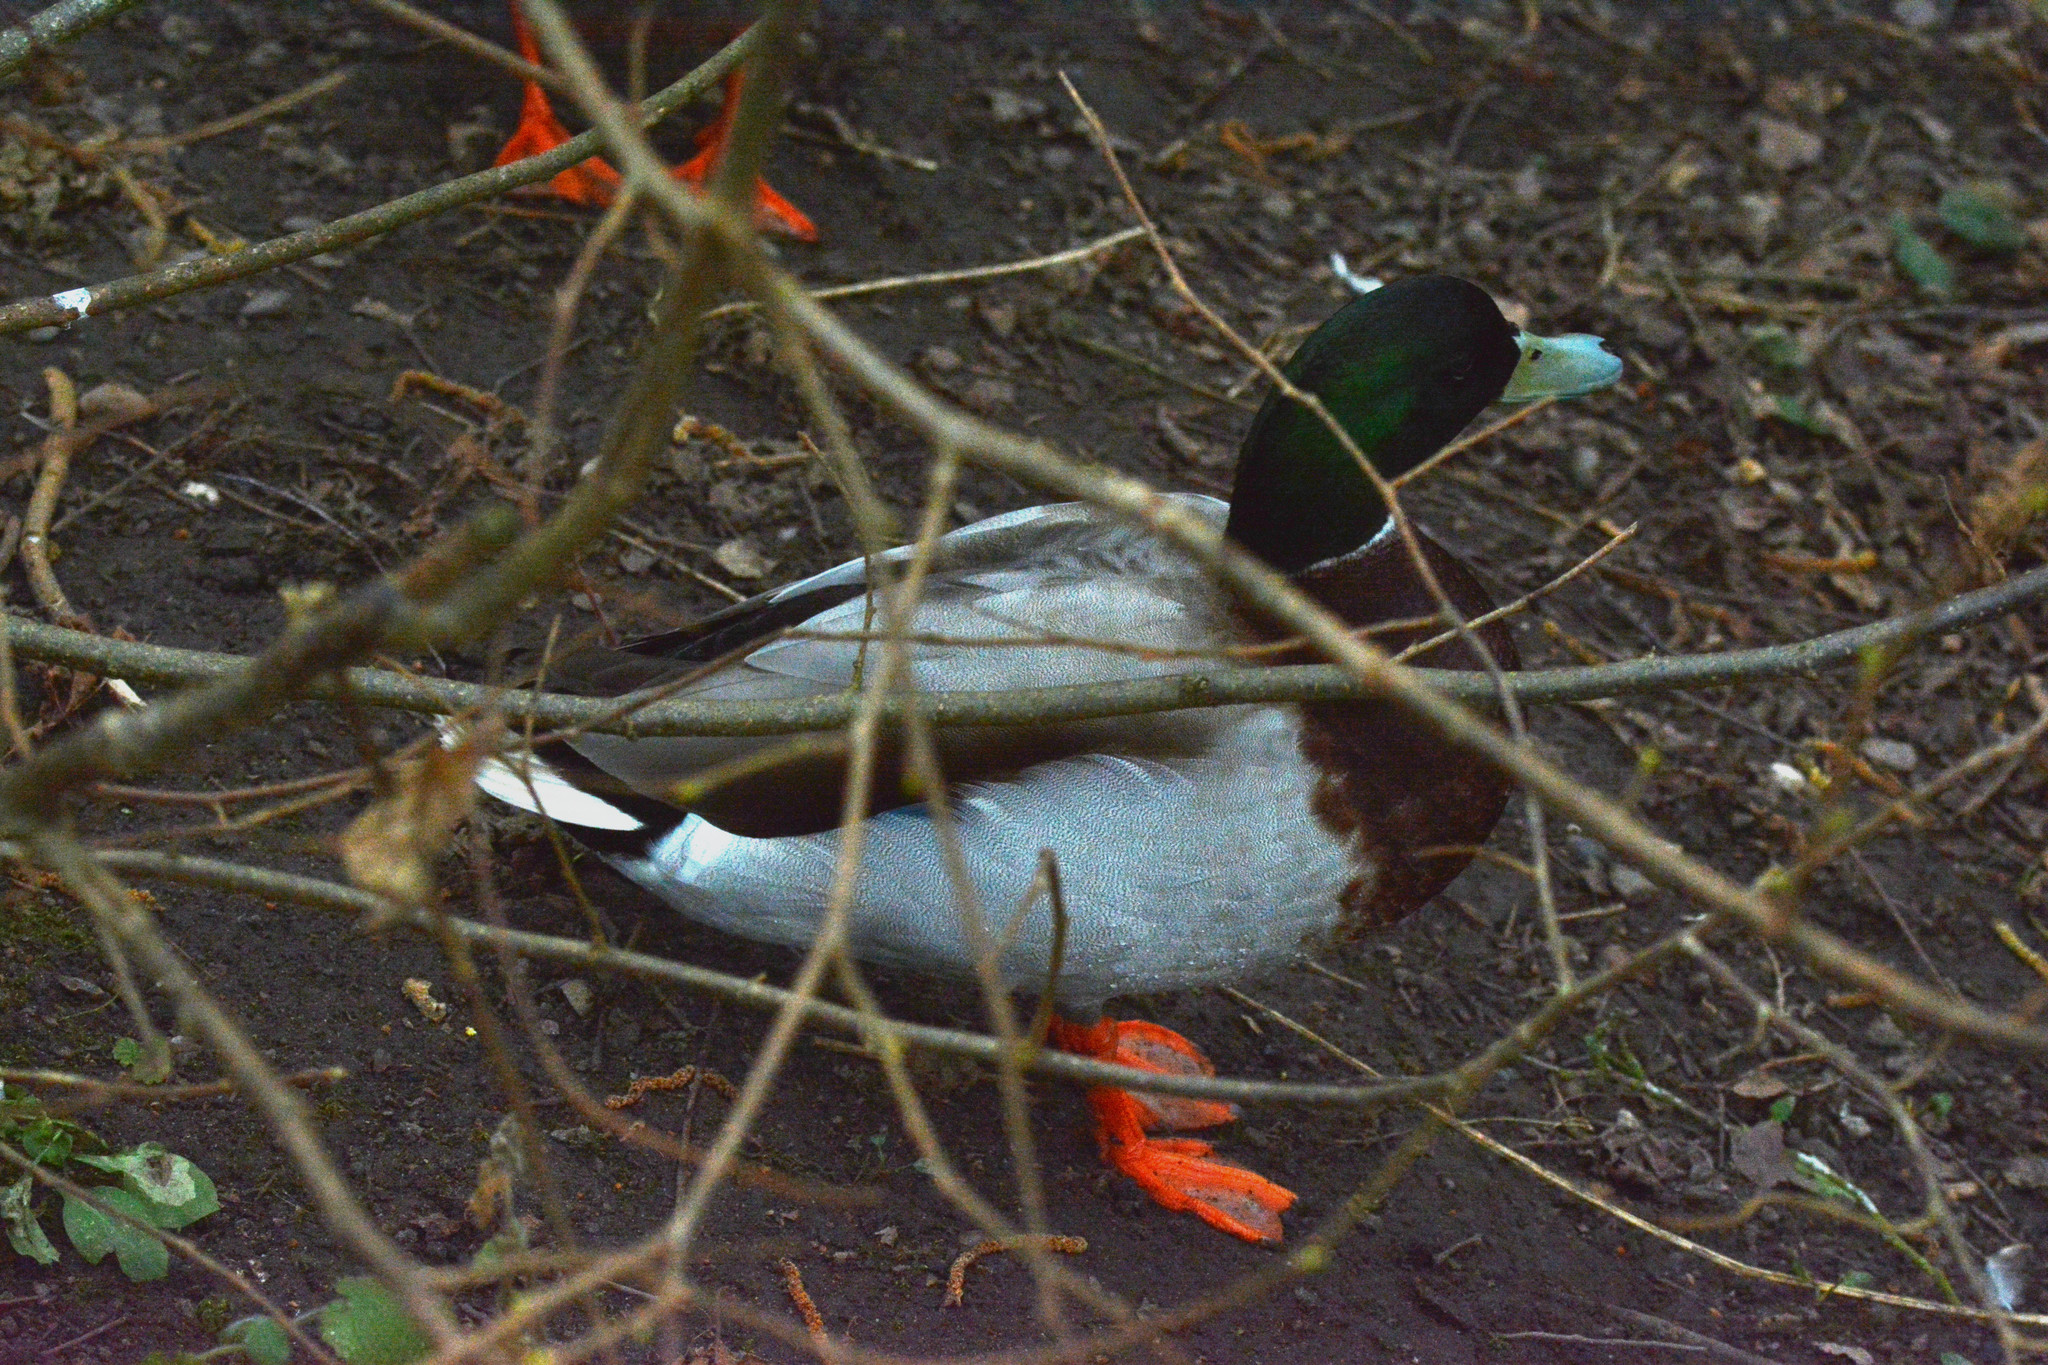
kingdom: Animalia
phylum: Chordata
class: Aves
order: Anseriformes
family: Anatidae
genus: Anas
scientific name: Anas platyrhynchos
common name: Mallard
